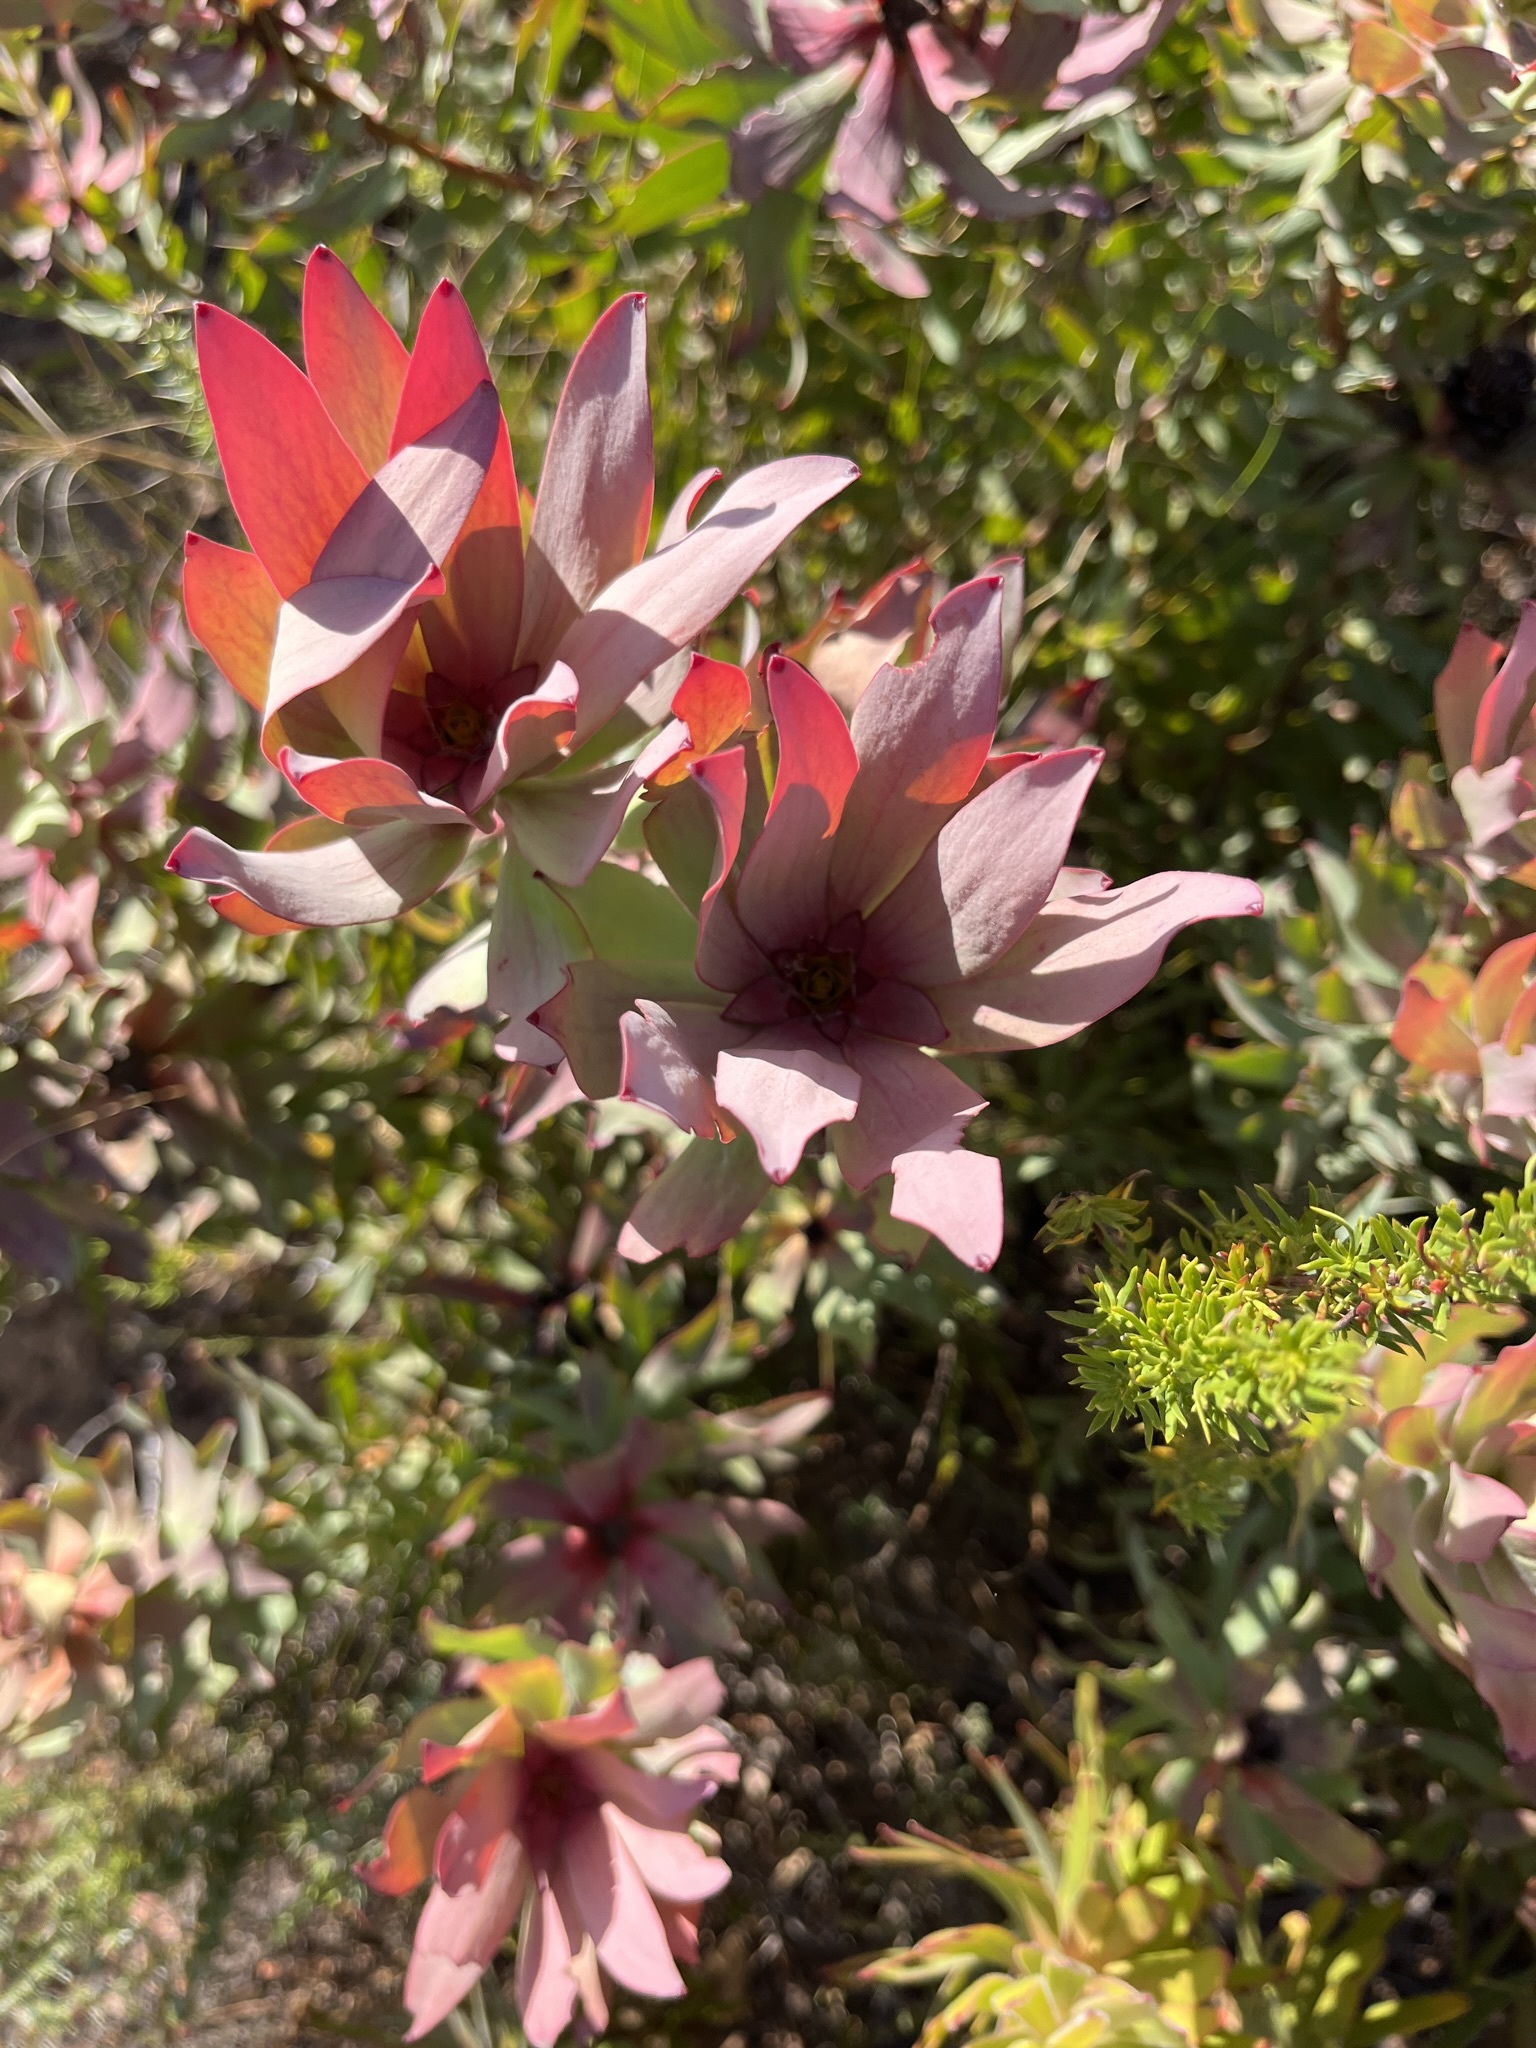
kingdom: Plantae
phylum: Tracheophyta
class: Magnoliopsida
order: Proteales
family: Proteaceae
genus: Leucadendron
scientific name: Leucadendron tinctum
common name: Spicy conebush
